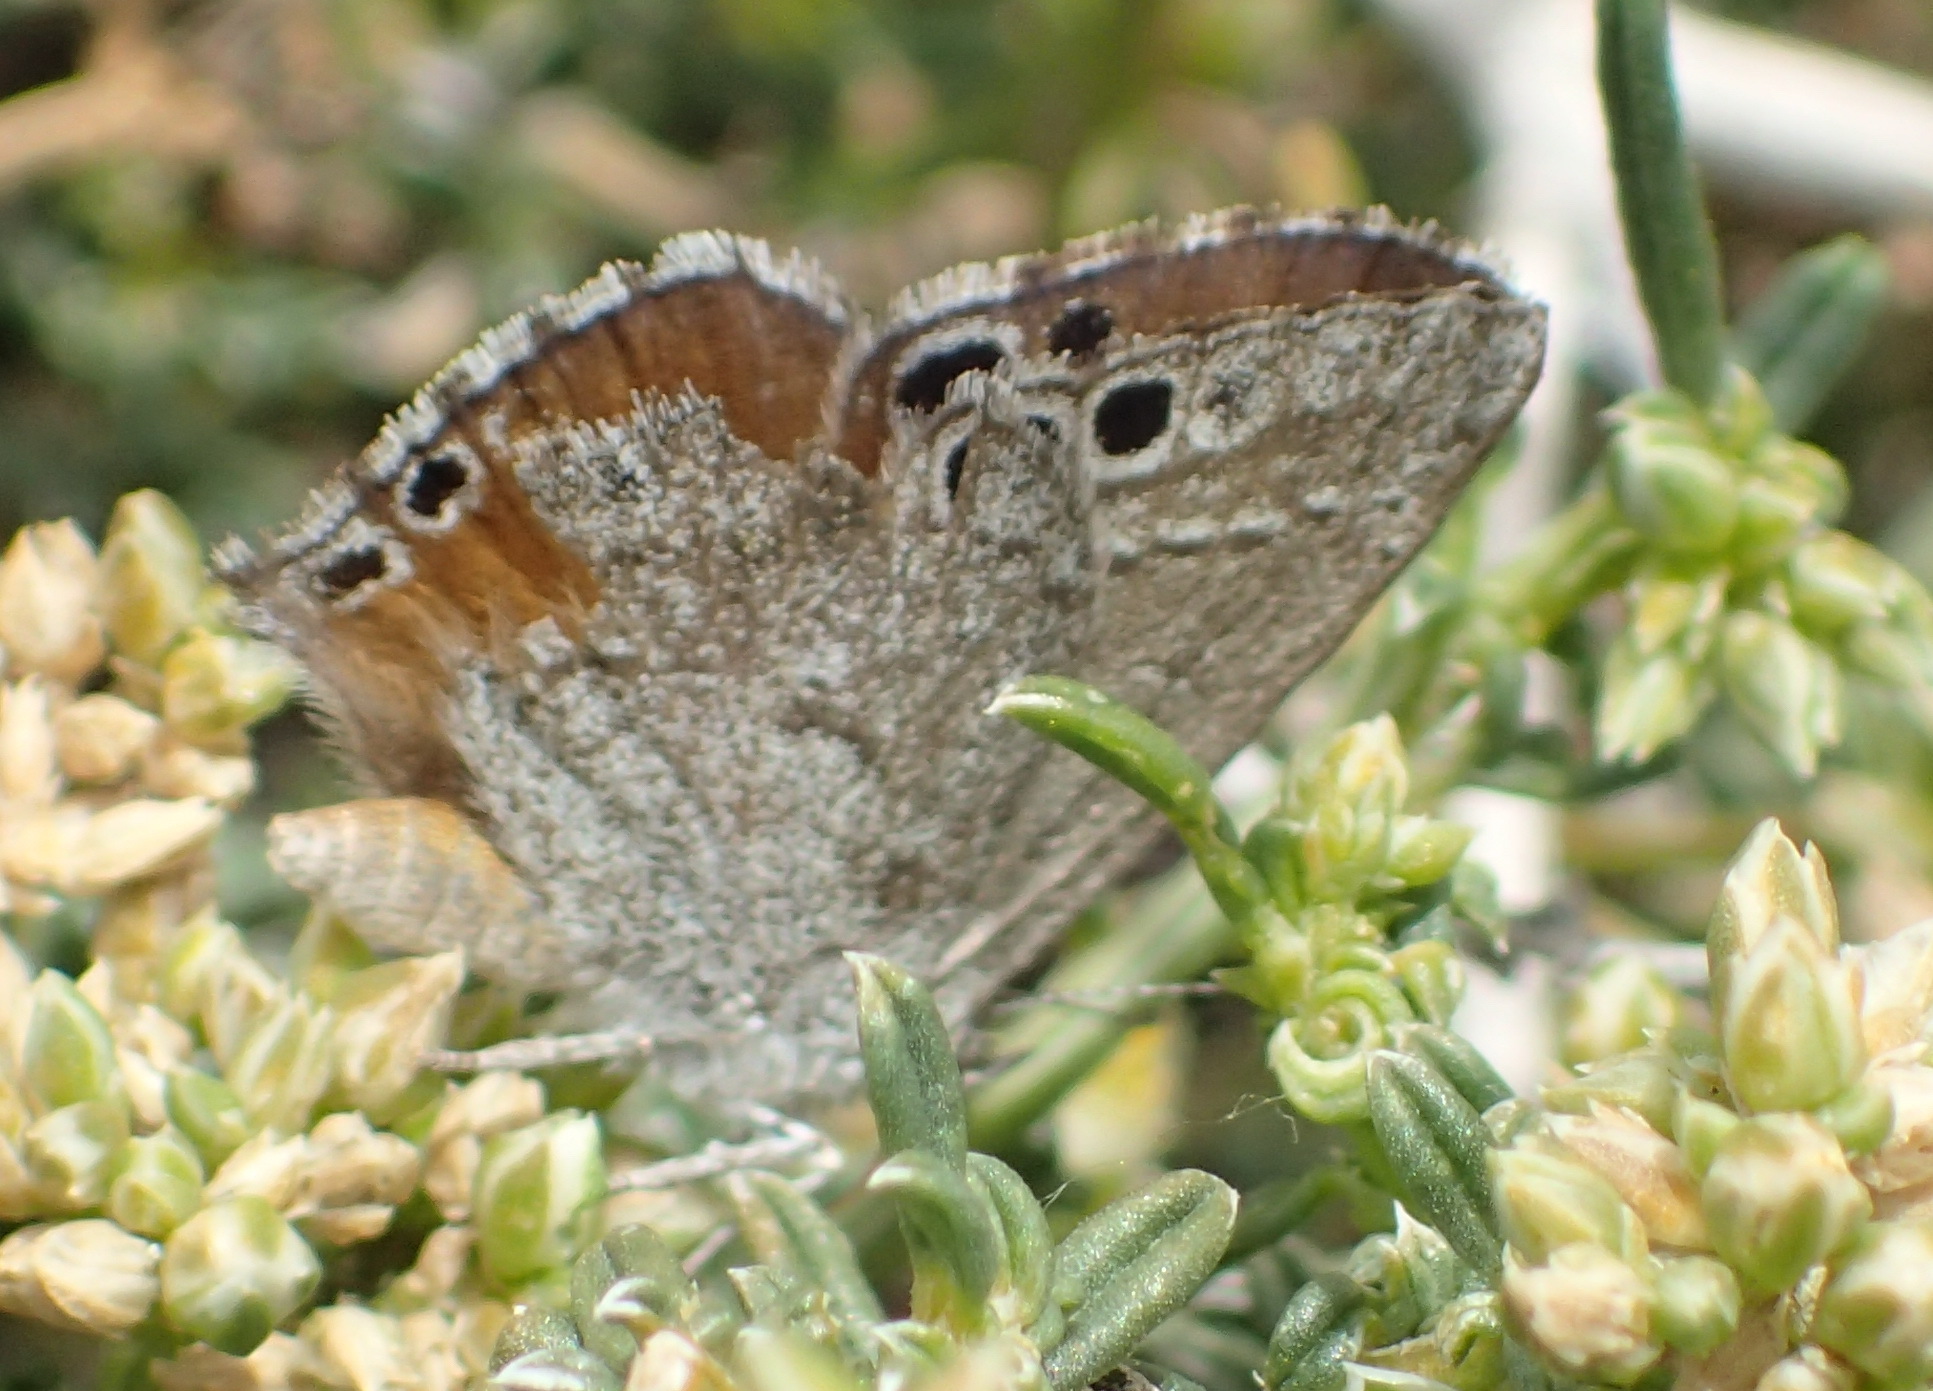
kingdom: Animalia
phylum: Arthropoda
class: Insecta
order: Lepidoptera
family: Lycaenidae
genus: Leptomyrina
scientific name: Leptomyrina lara
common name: Cape black-eye
